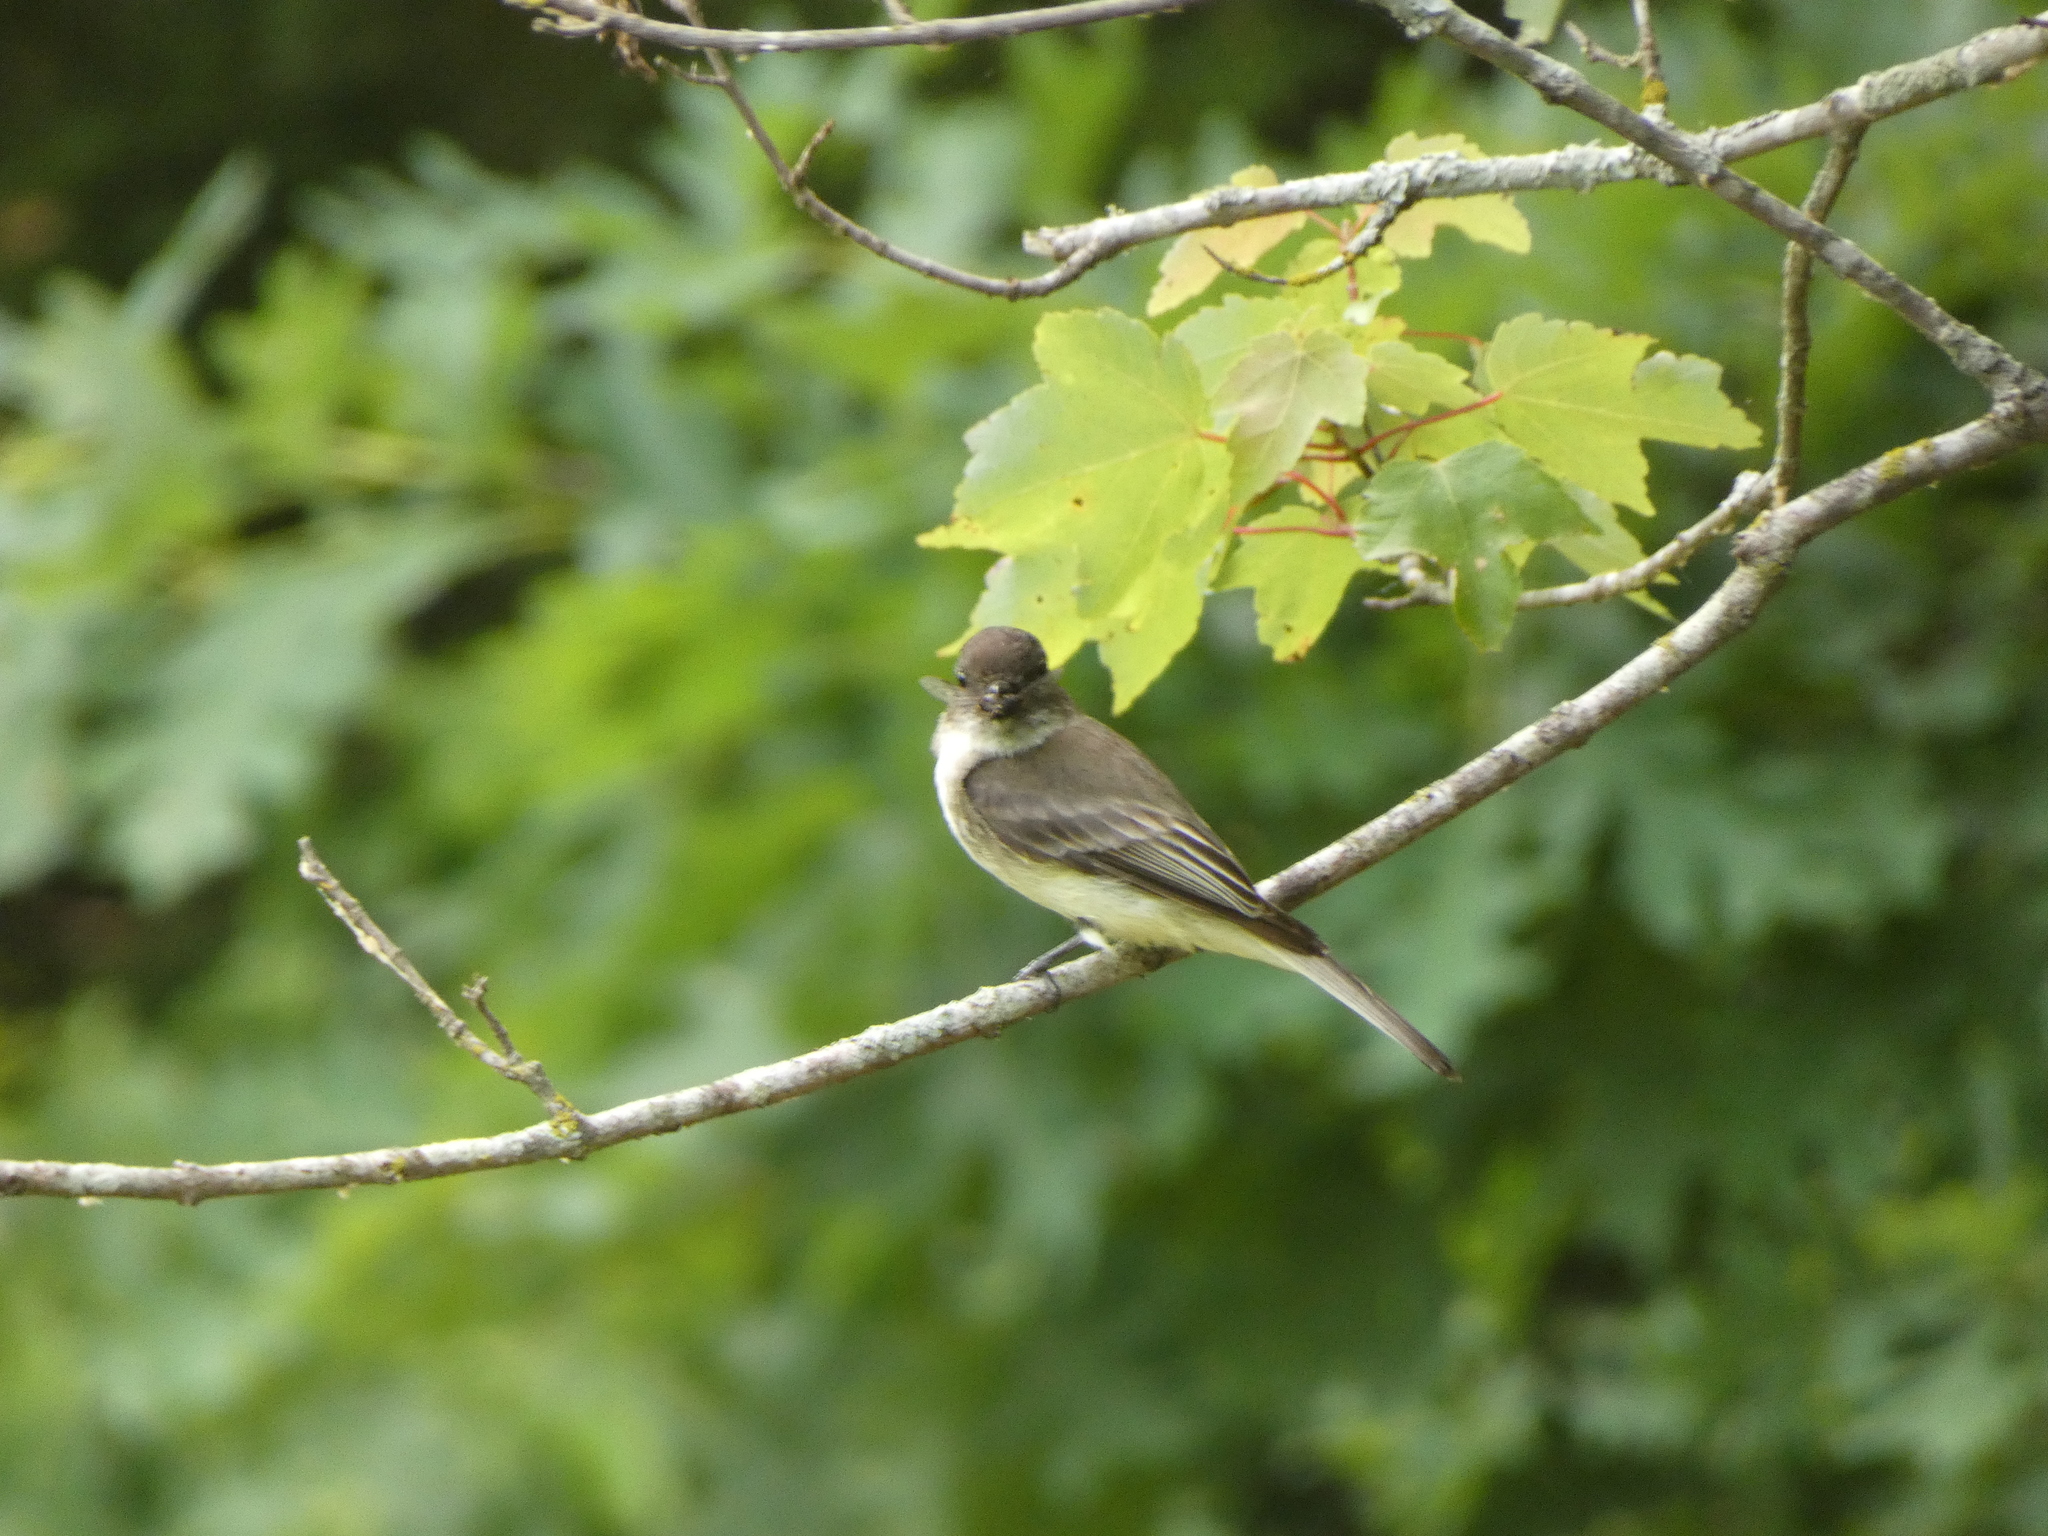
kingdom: Animalia
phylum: Chordata
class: Aves
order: Passeriformes
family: Tyrannidae
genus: Sayornis
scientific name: Sayornis phoebe
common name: Eastern phoebe
